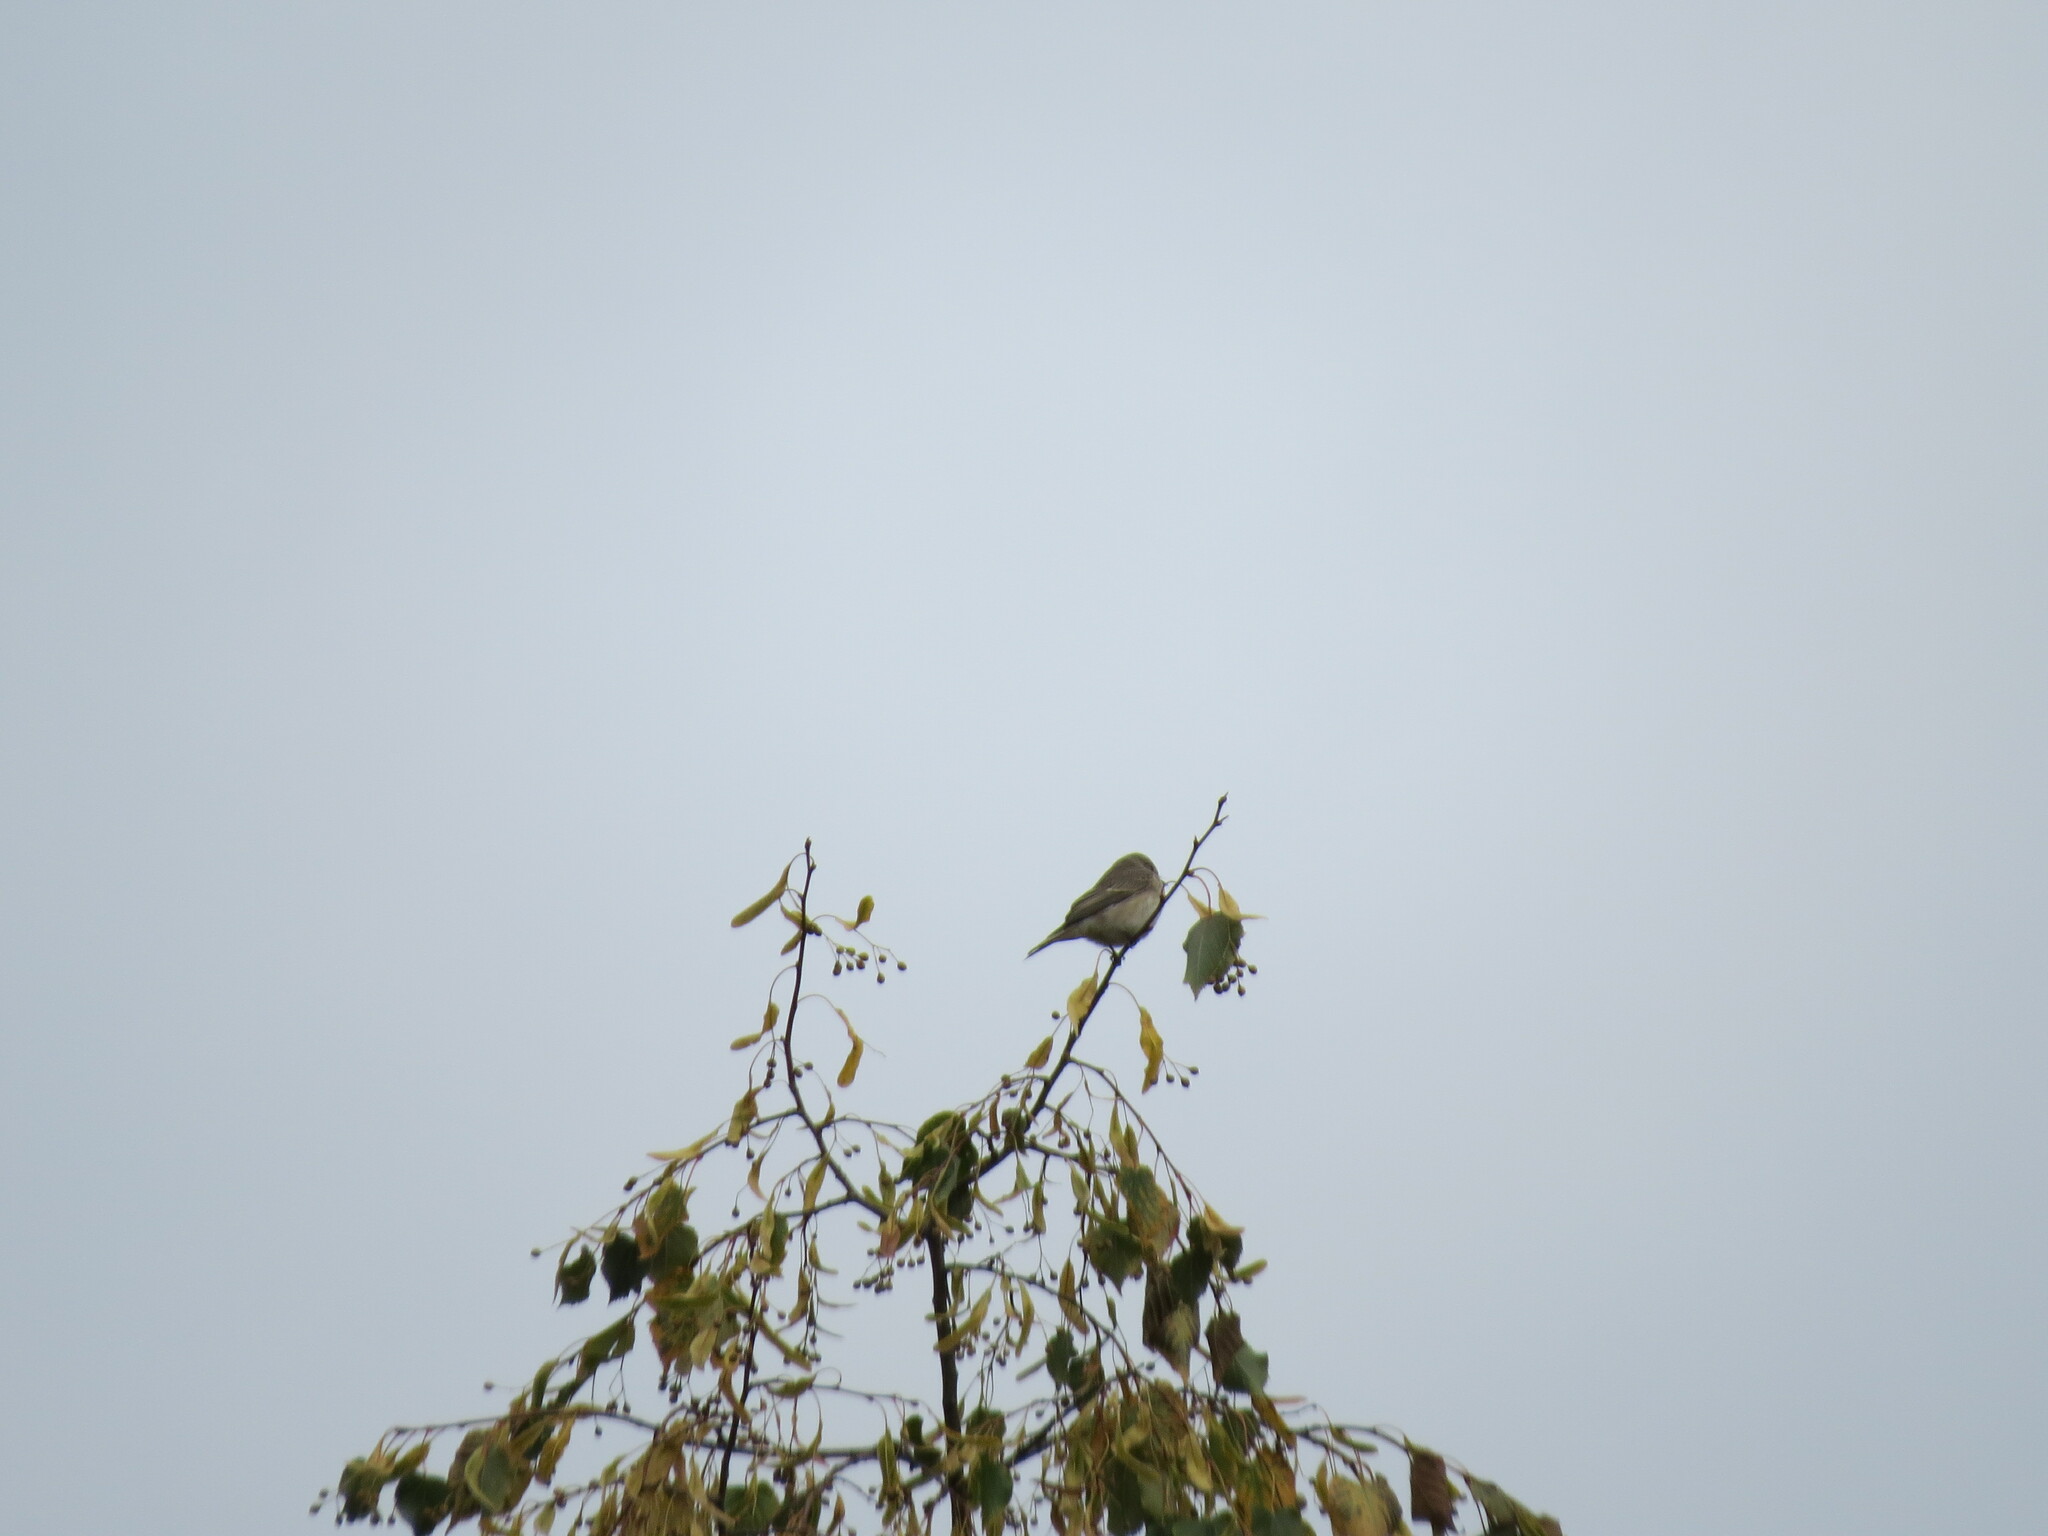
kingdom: Animalia
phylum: Chordata
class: Aves
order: Passeriformes
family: Muscicapidae
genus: Muscicapa
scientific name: Muscicapa striata
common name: Spotted flycatcher
